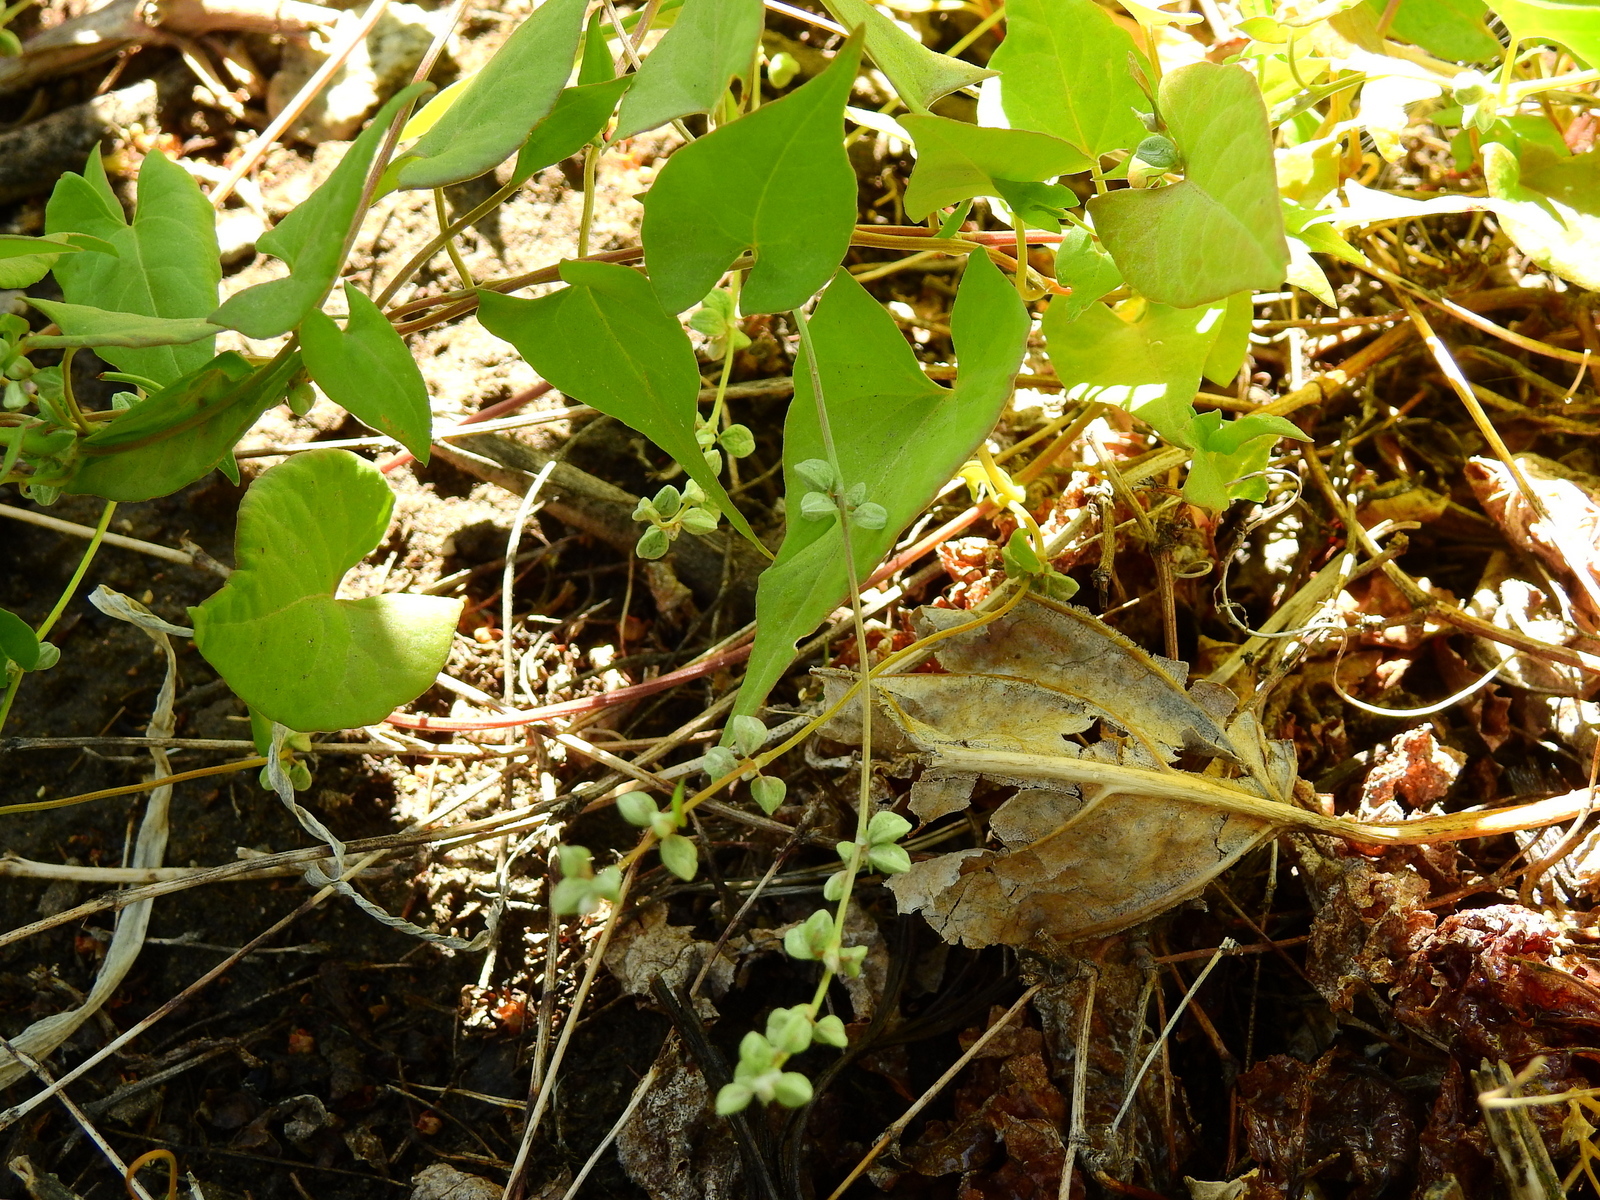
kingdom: Plantae
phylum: Tracheophyta
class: Magnoliopsida
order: Caryophyllales
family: Polygonaceae
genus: Fallopia
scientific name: Fallopia convolvulus
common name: Black bindweed
